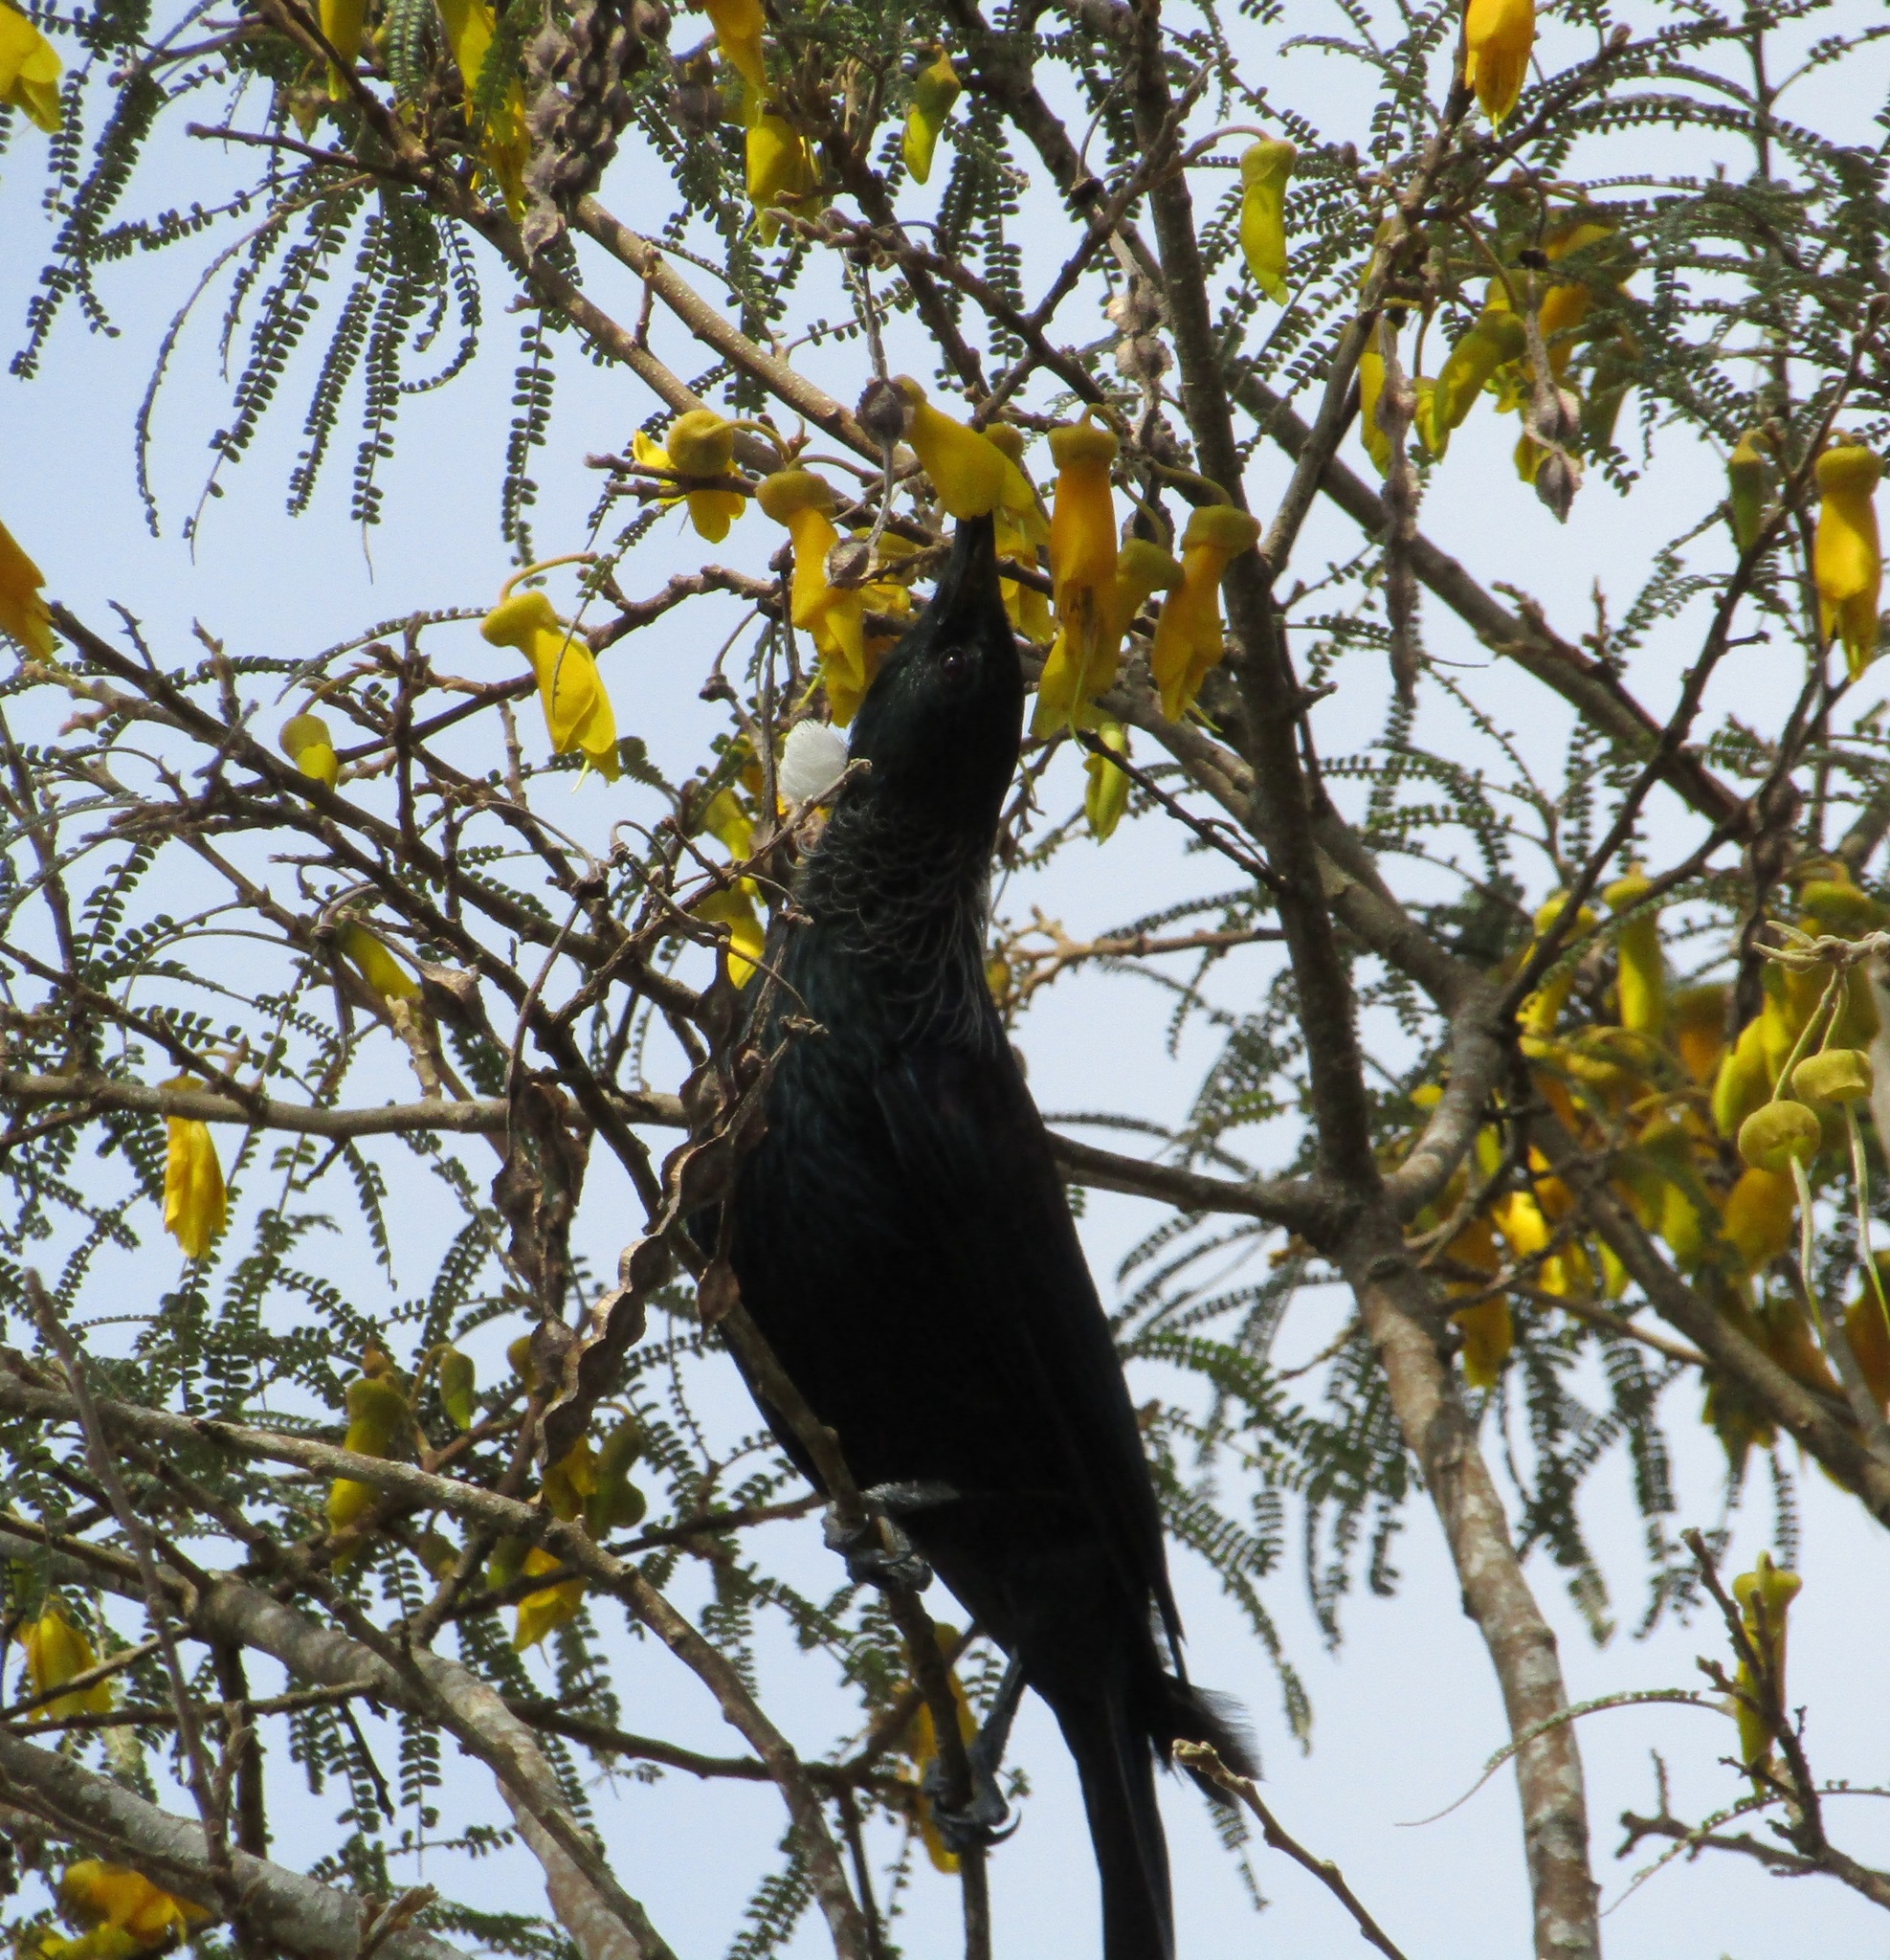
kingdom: Animalia
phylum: Chordata
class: Aves
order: Passeriformes
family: Meliphagidae
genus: Prosthemadera
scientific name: Prosthemadera novaeseelandiae
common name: Tui
